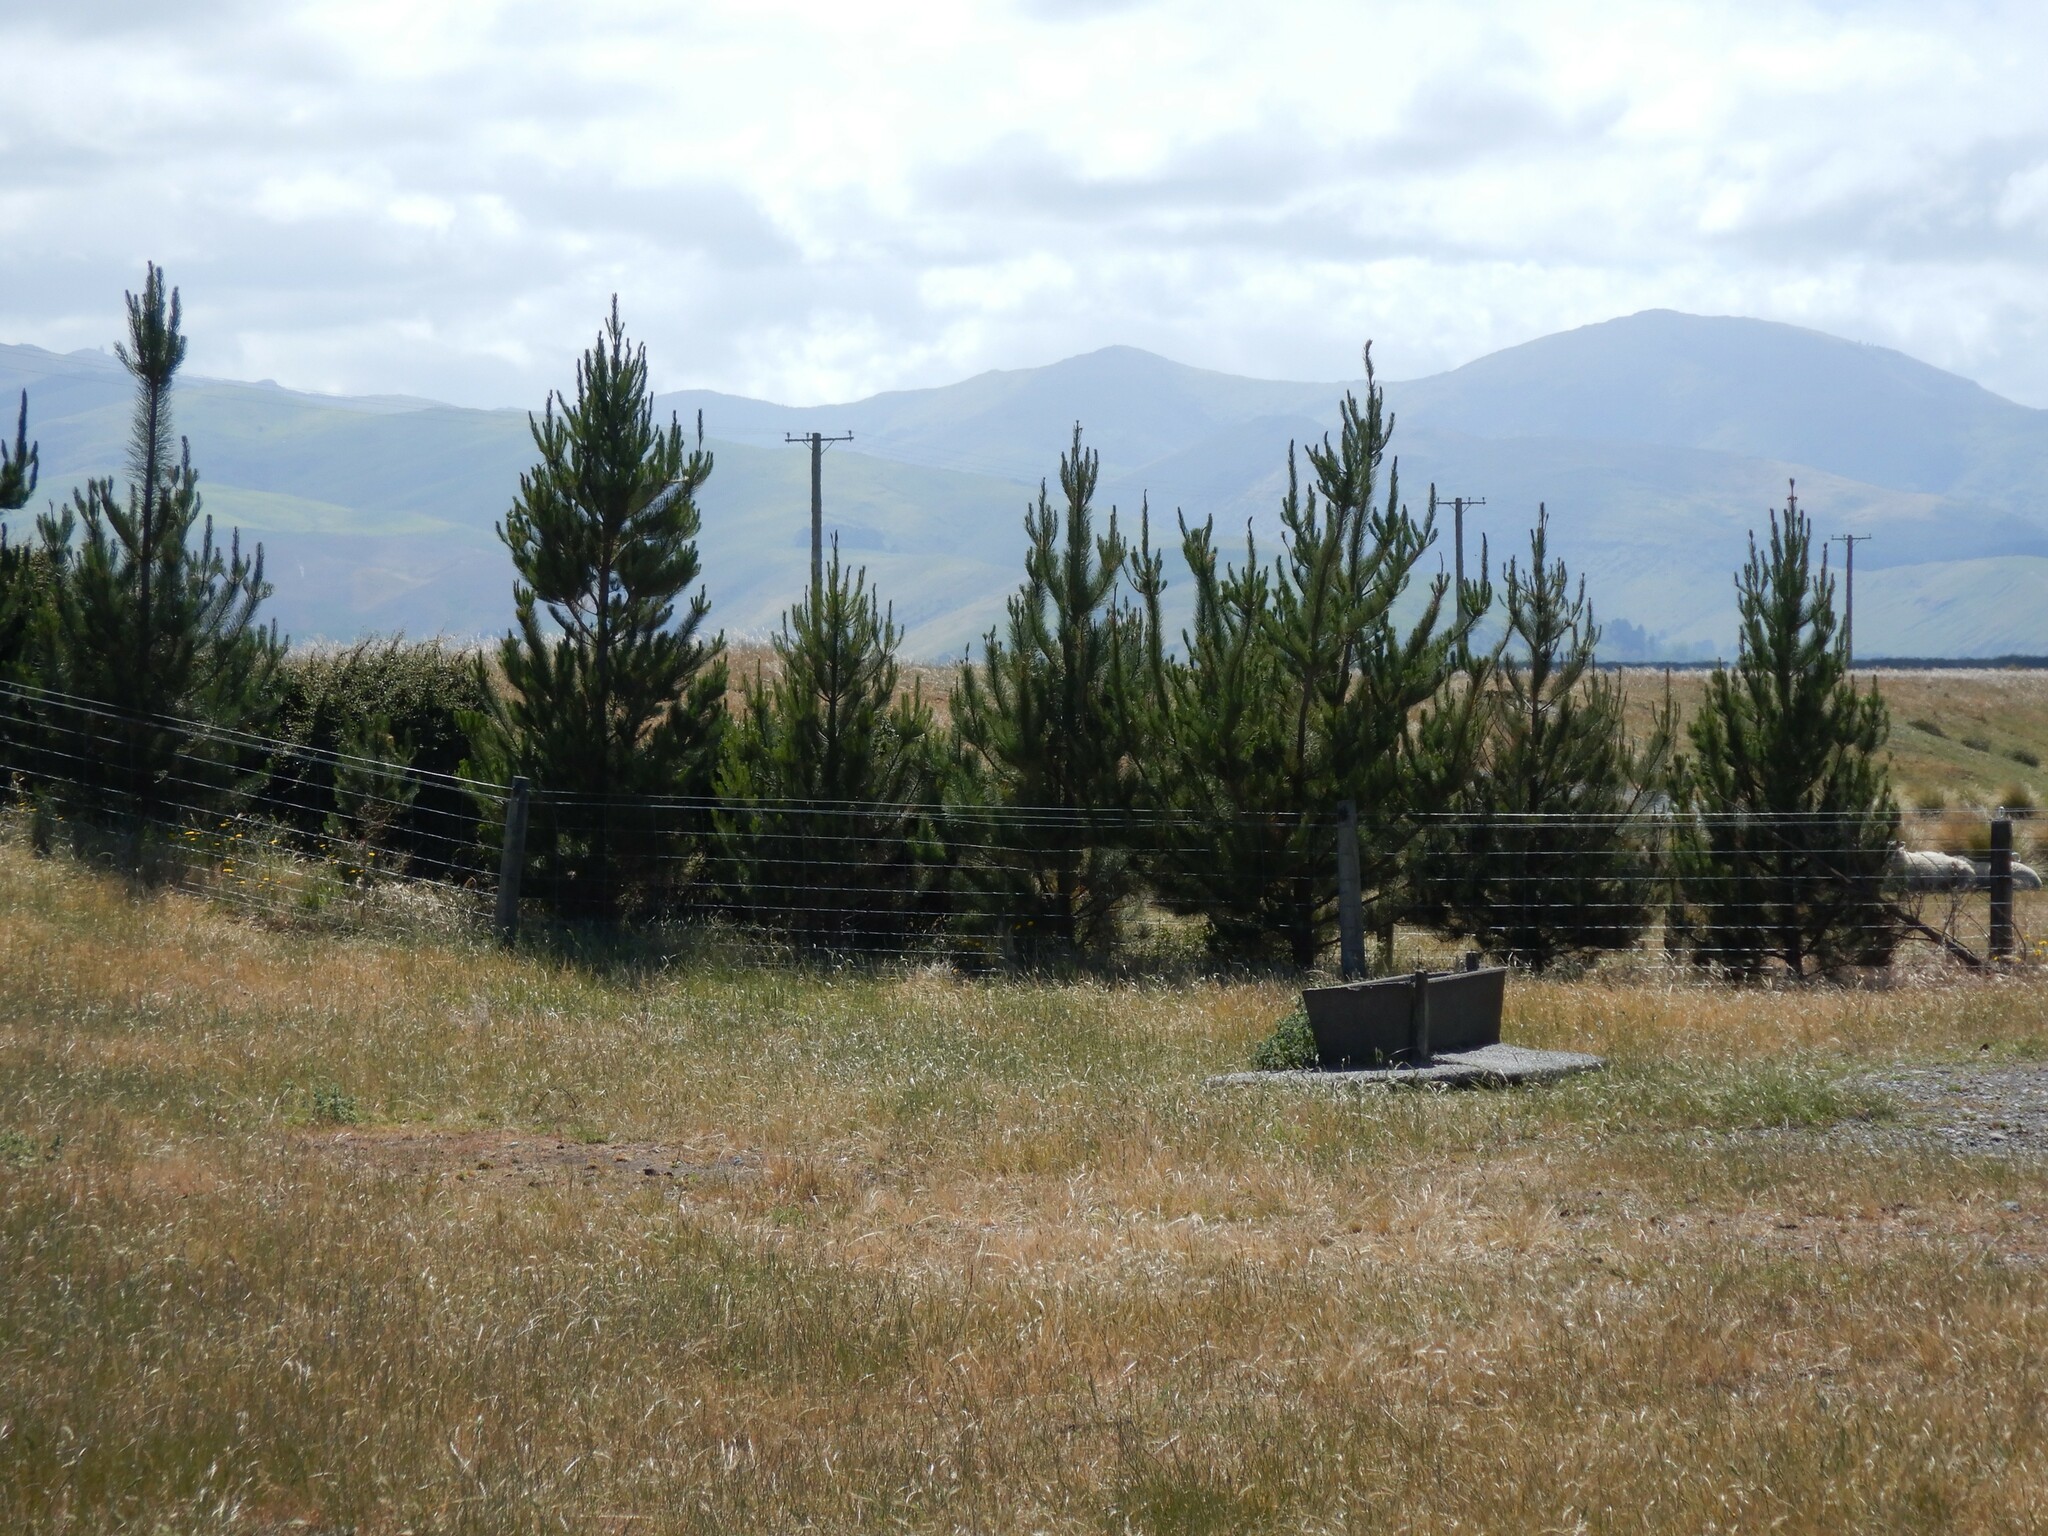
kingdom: Plantae
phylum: Tracheophyta
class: Pinopsida
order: Pinales
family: Pinaceae
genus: Pinus
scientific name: Pinus radiata
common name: Monterey pine
